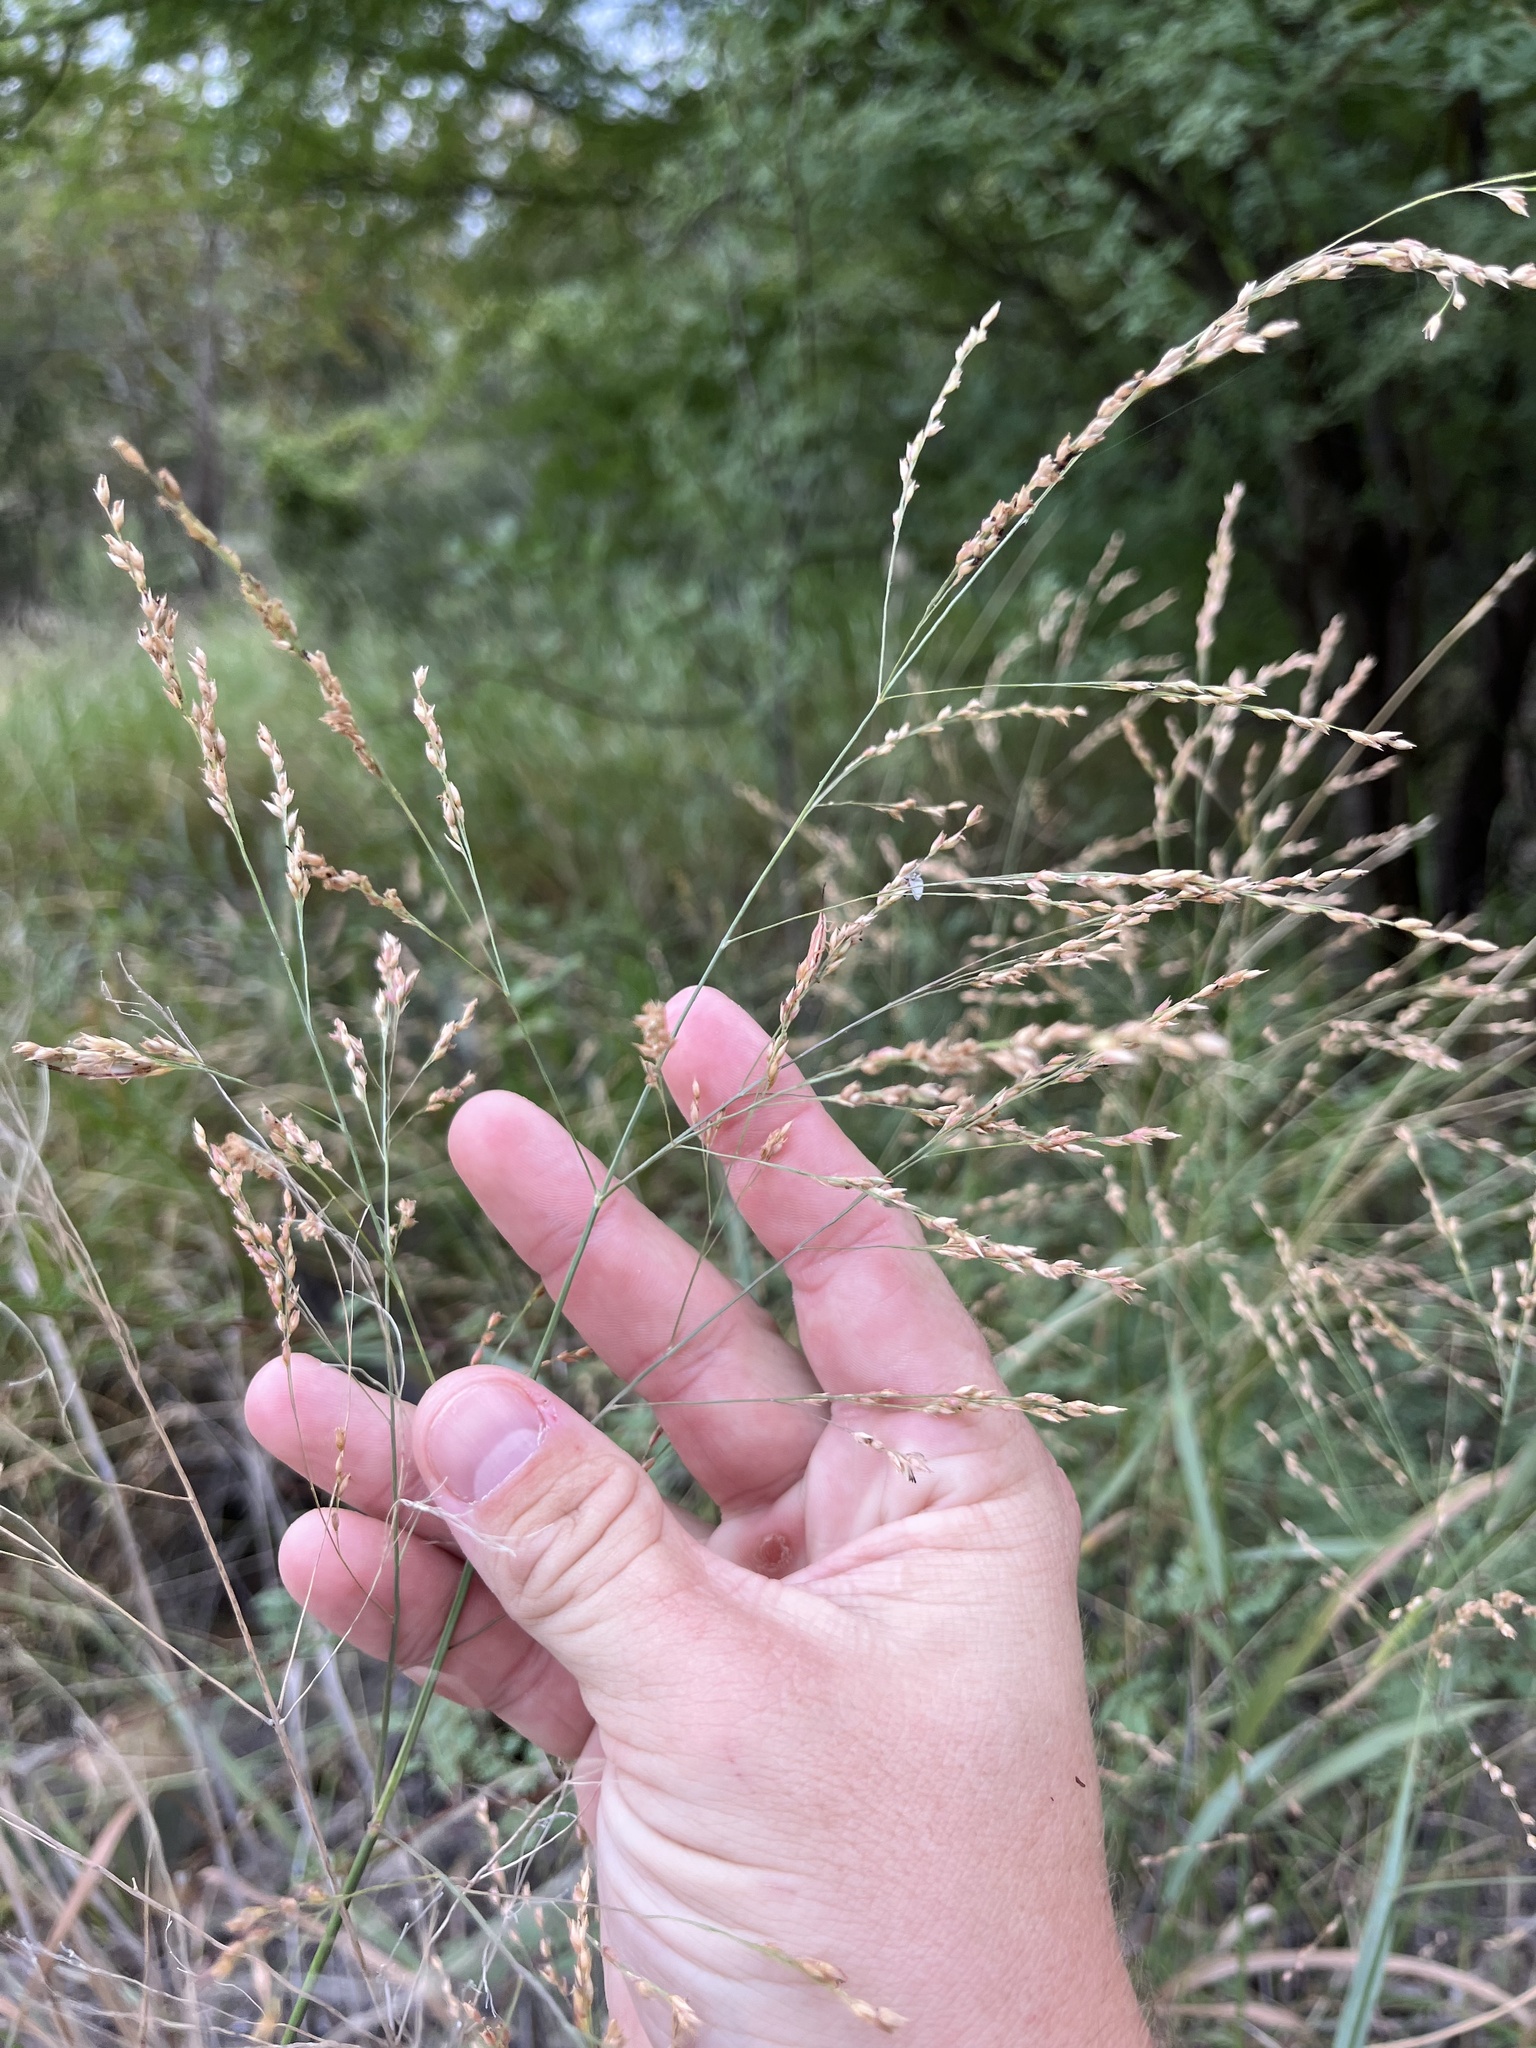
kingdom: Plantae
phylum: Tracheophyta
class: Liliopsida
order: Poales
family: Poaceae
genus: Panicum
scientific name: Panicum virgatum
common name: Switchgrass
